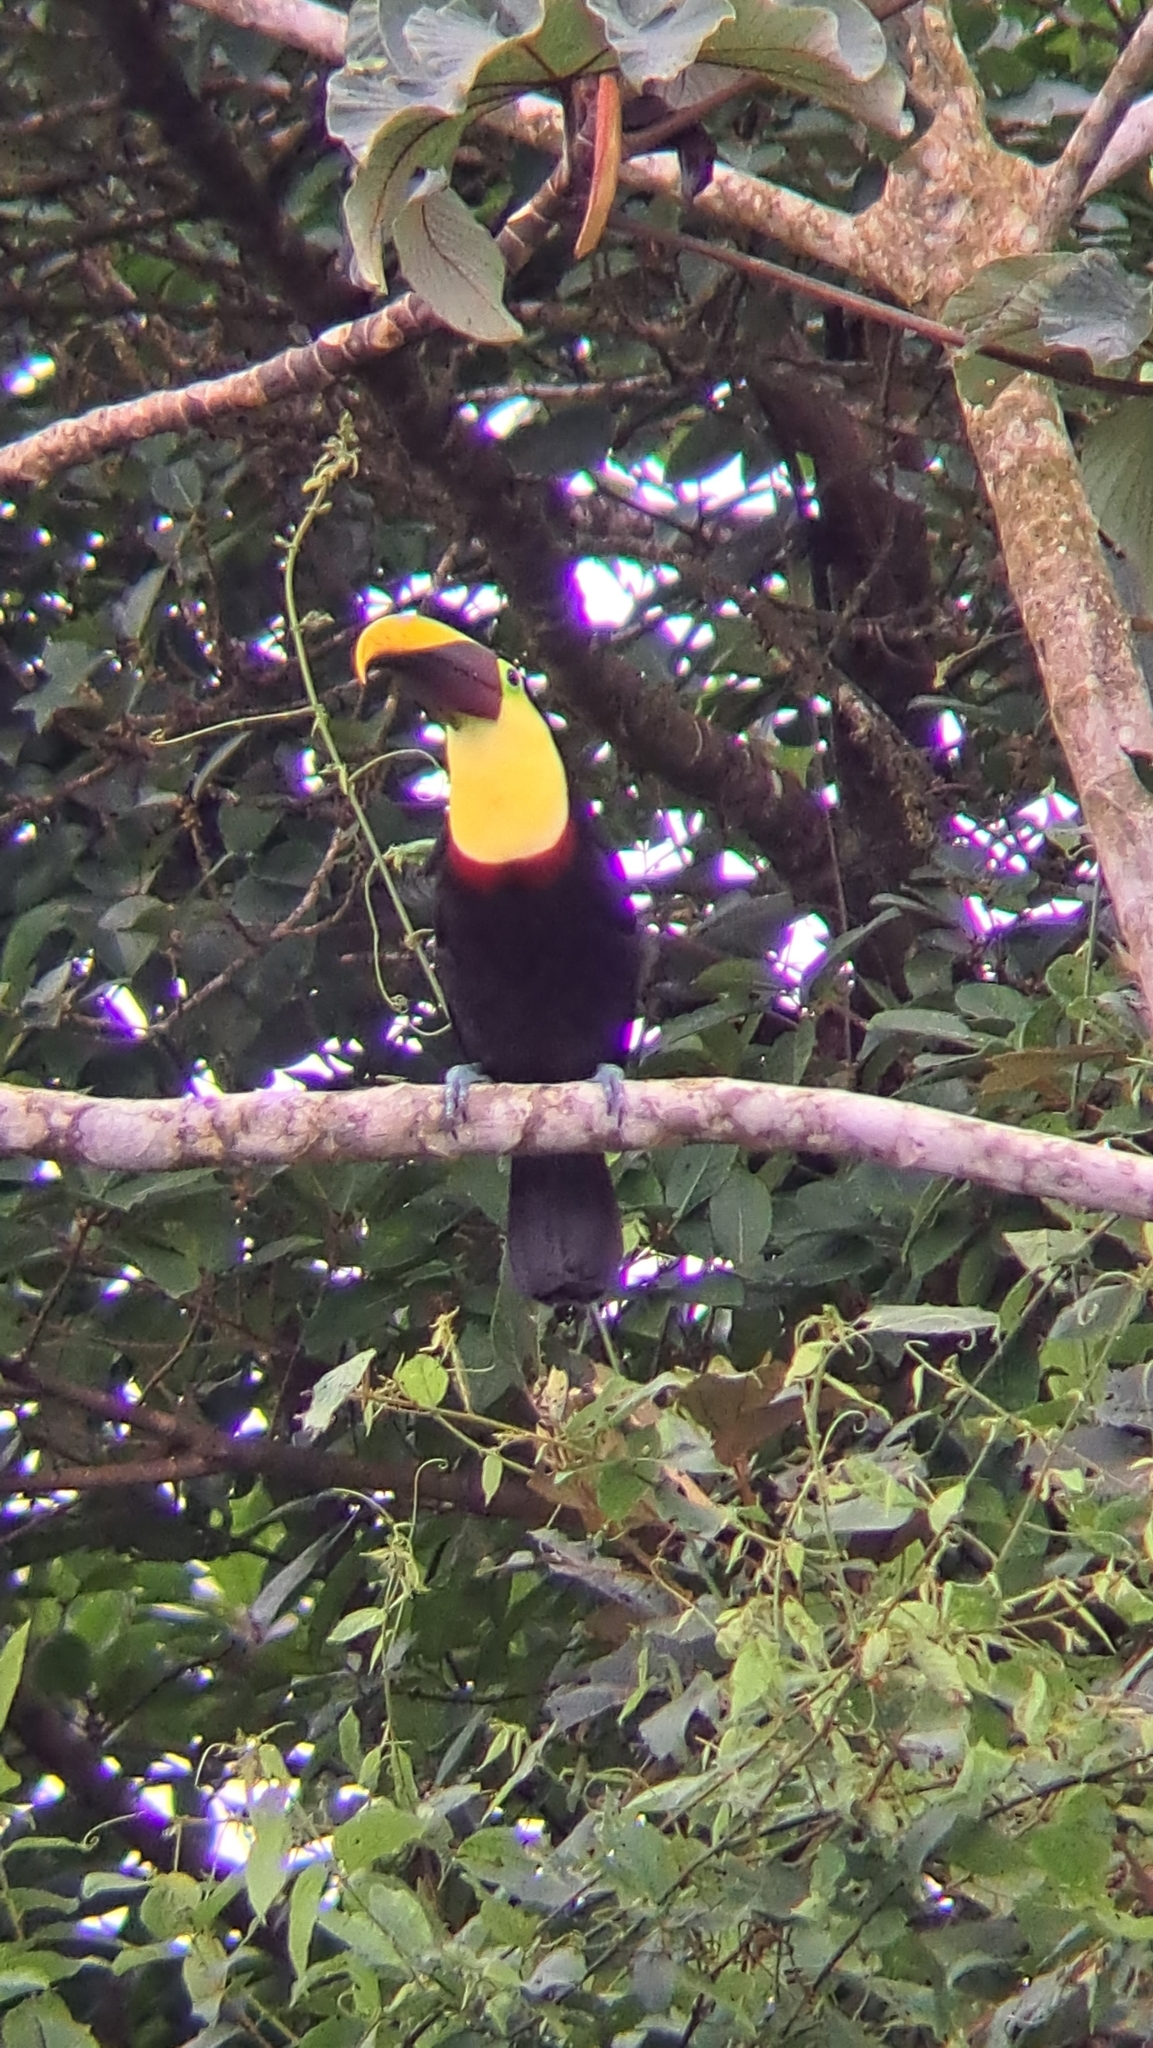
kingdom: Animalia
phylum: Chordata
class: Aves
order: Piciformes
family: Ramphastidae
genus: Ramphastos
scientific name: Ramphastos ambiguus
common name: Yellow-throated toucan
